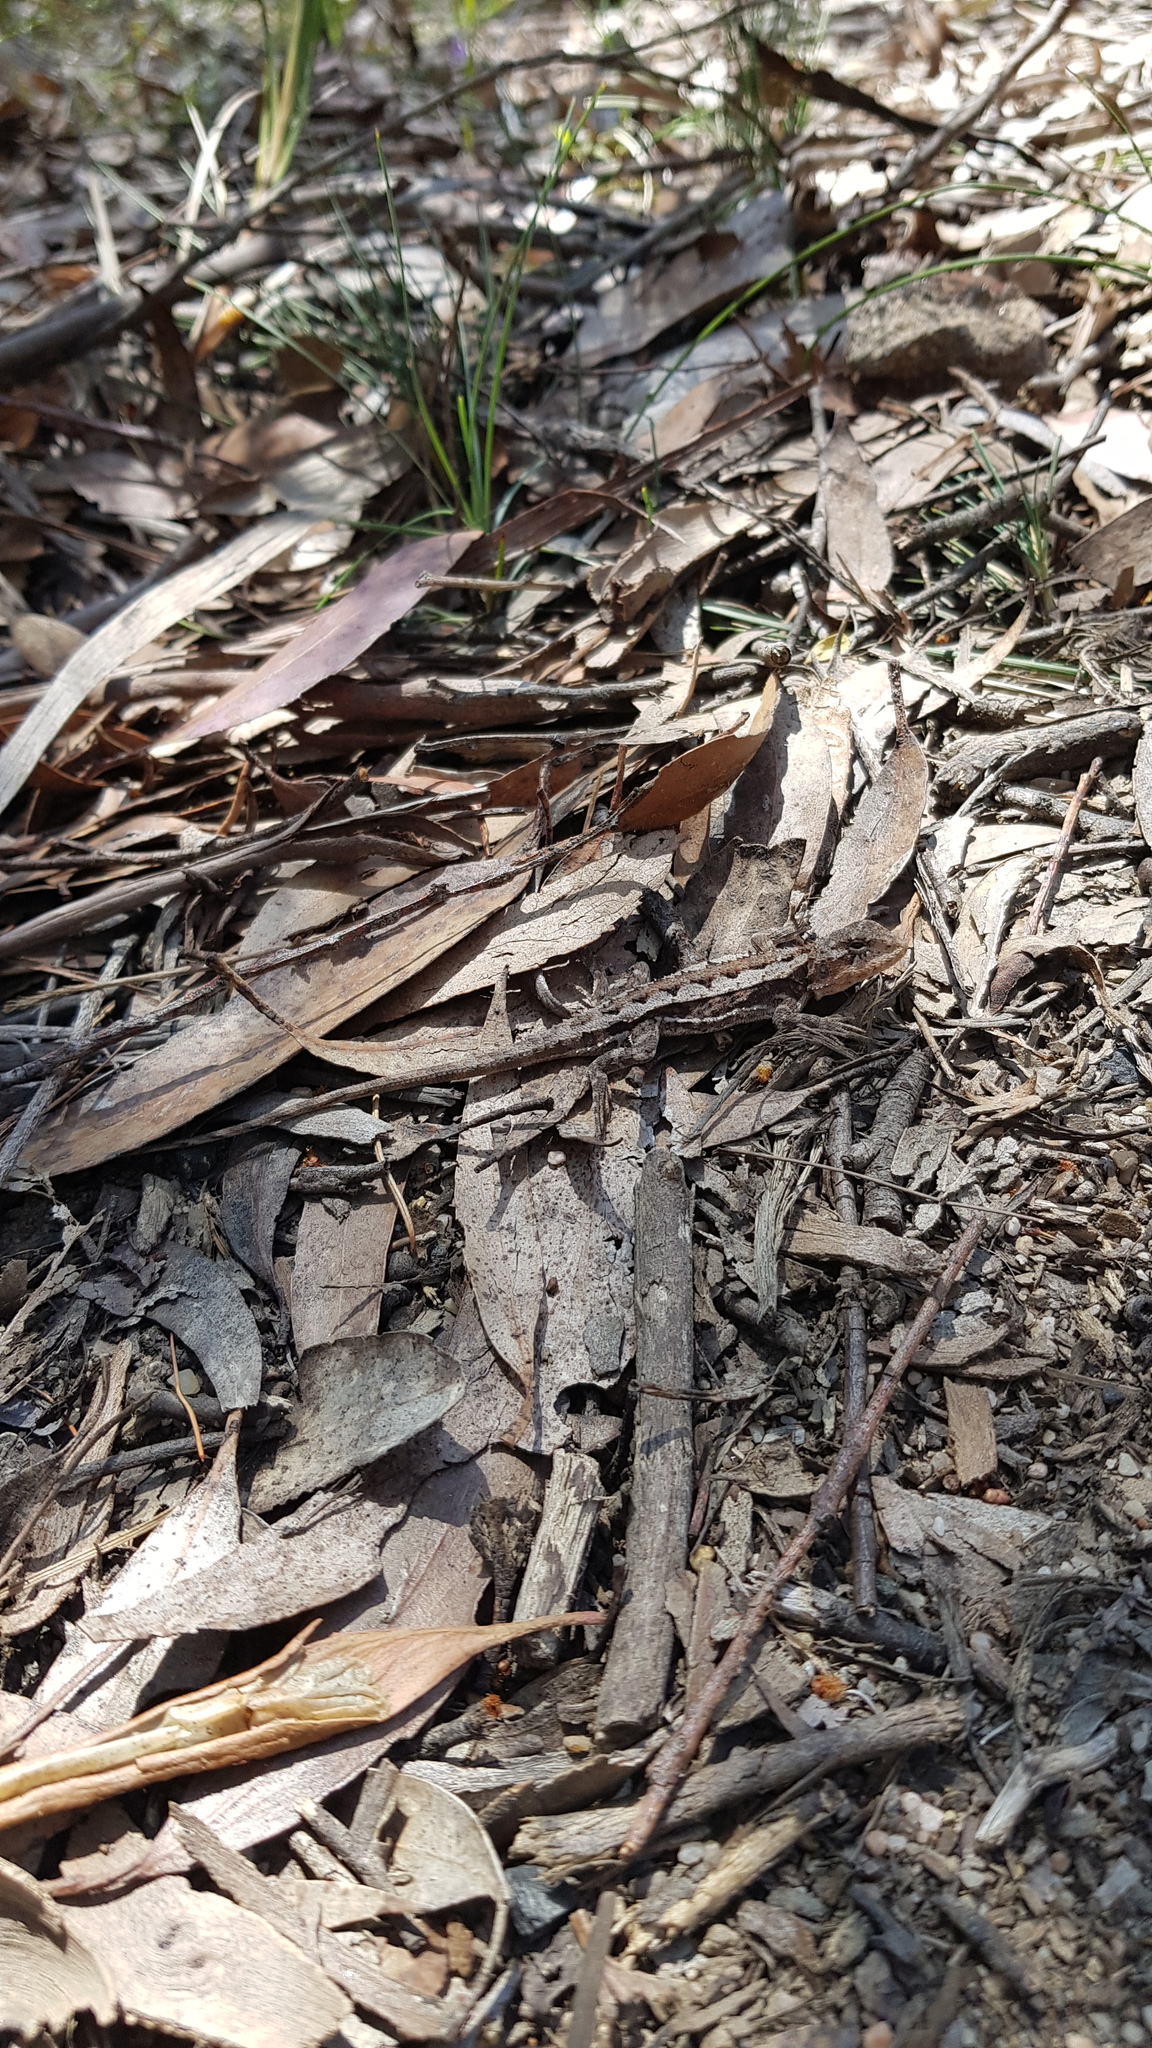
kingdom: Animalia
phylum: Chordata
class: Squamata
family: Agamidae
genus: Rankinia
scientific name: Rankinia diemensis
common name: Mountain dragon
